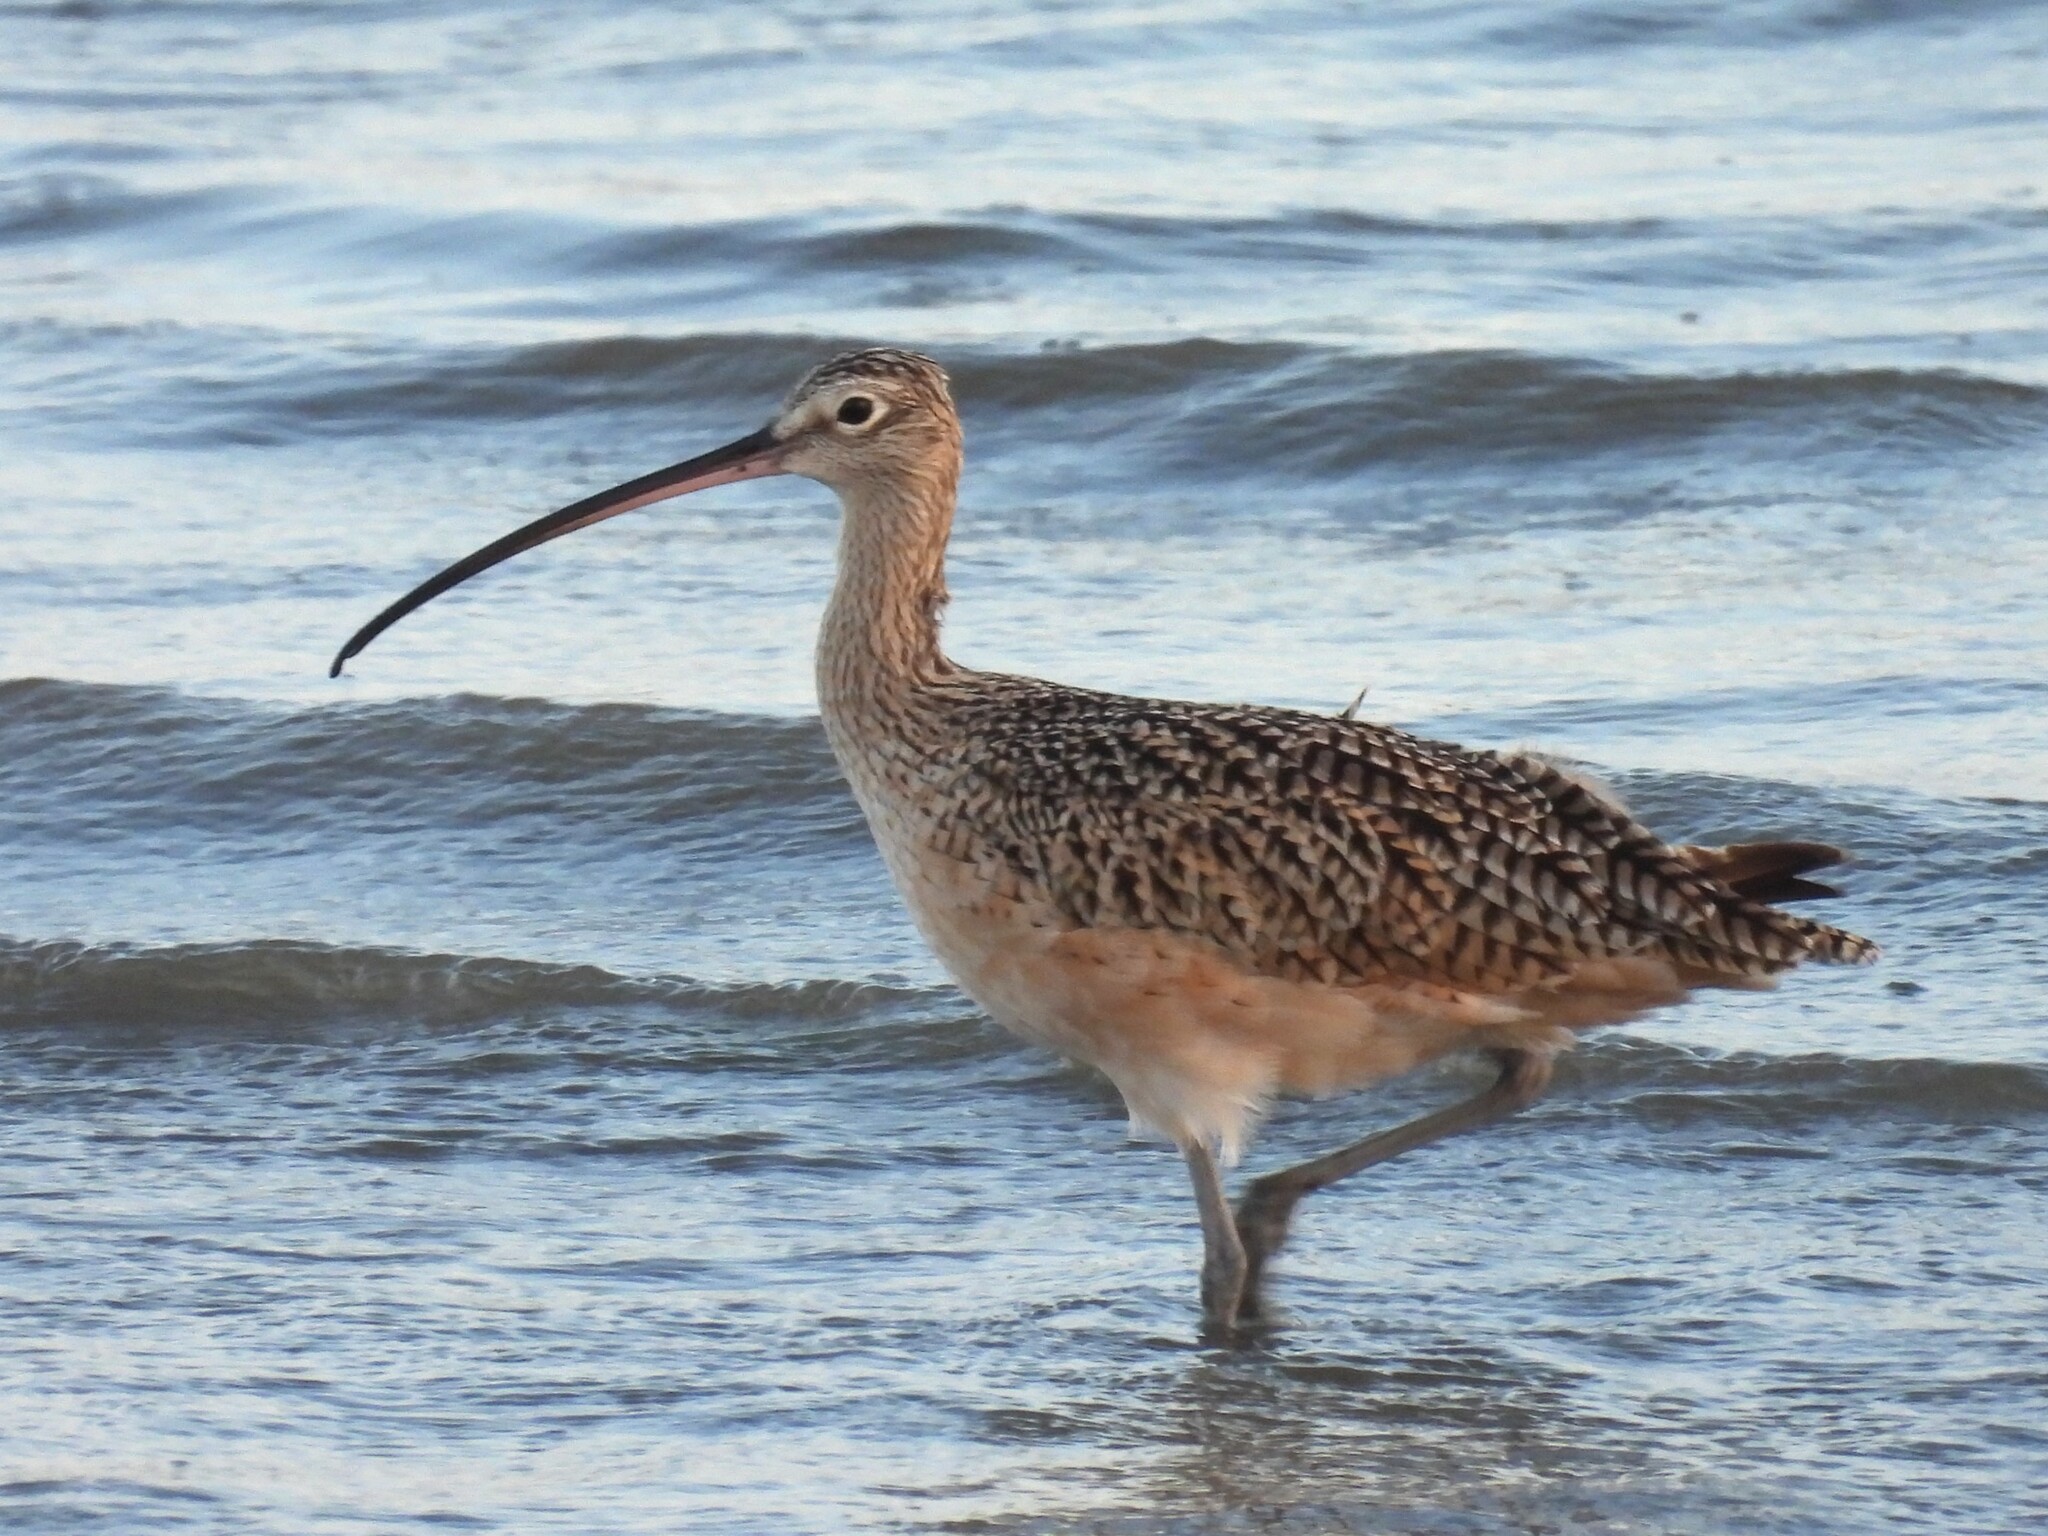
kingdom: Animalia
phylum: Chordata
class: Aves
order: Charadriiformes
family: Scolopacidae
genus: Numenius
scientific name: Numenius americanus
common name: Long-billed curlew
